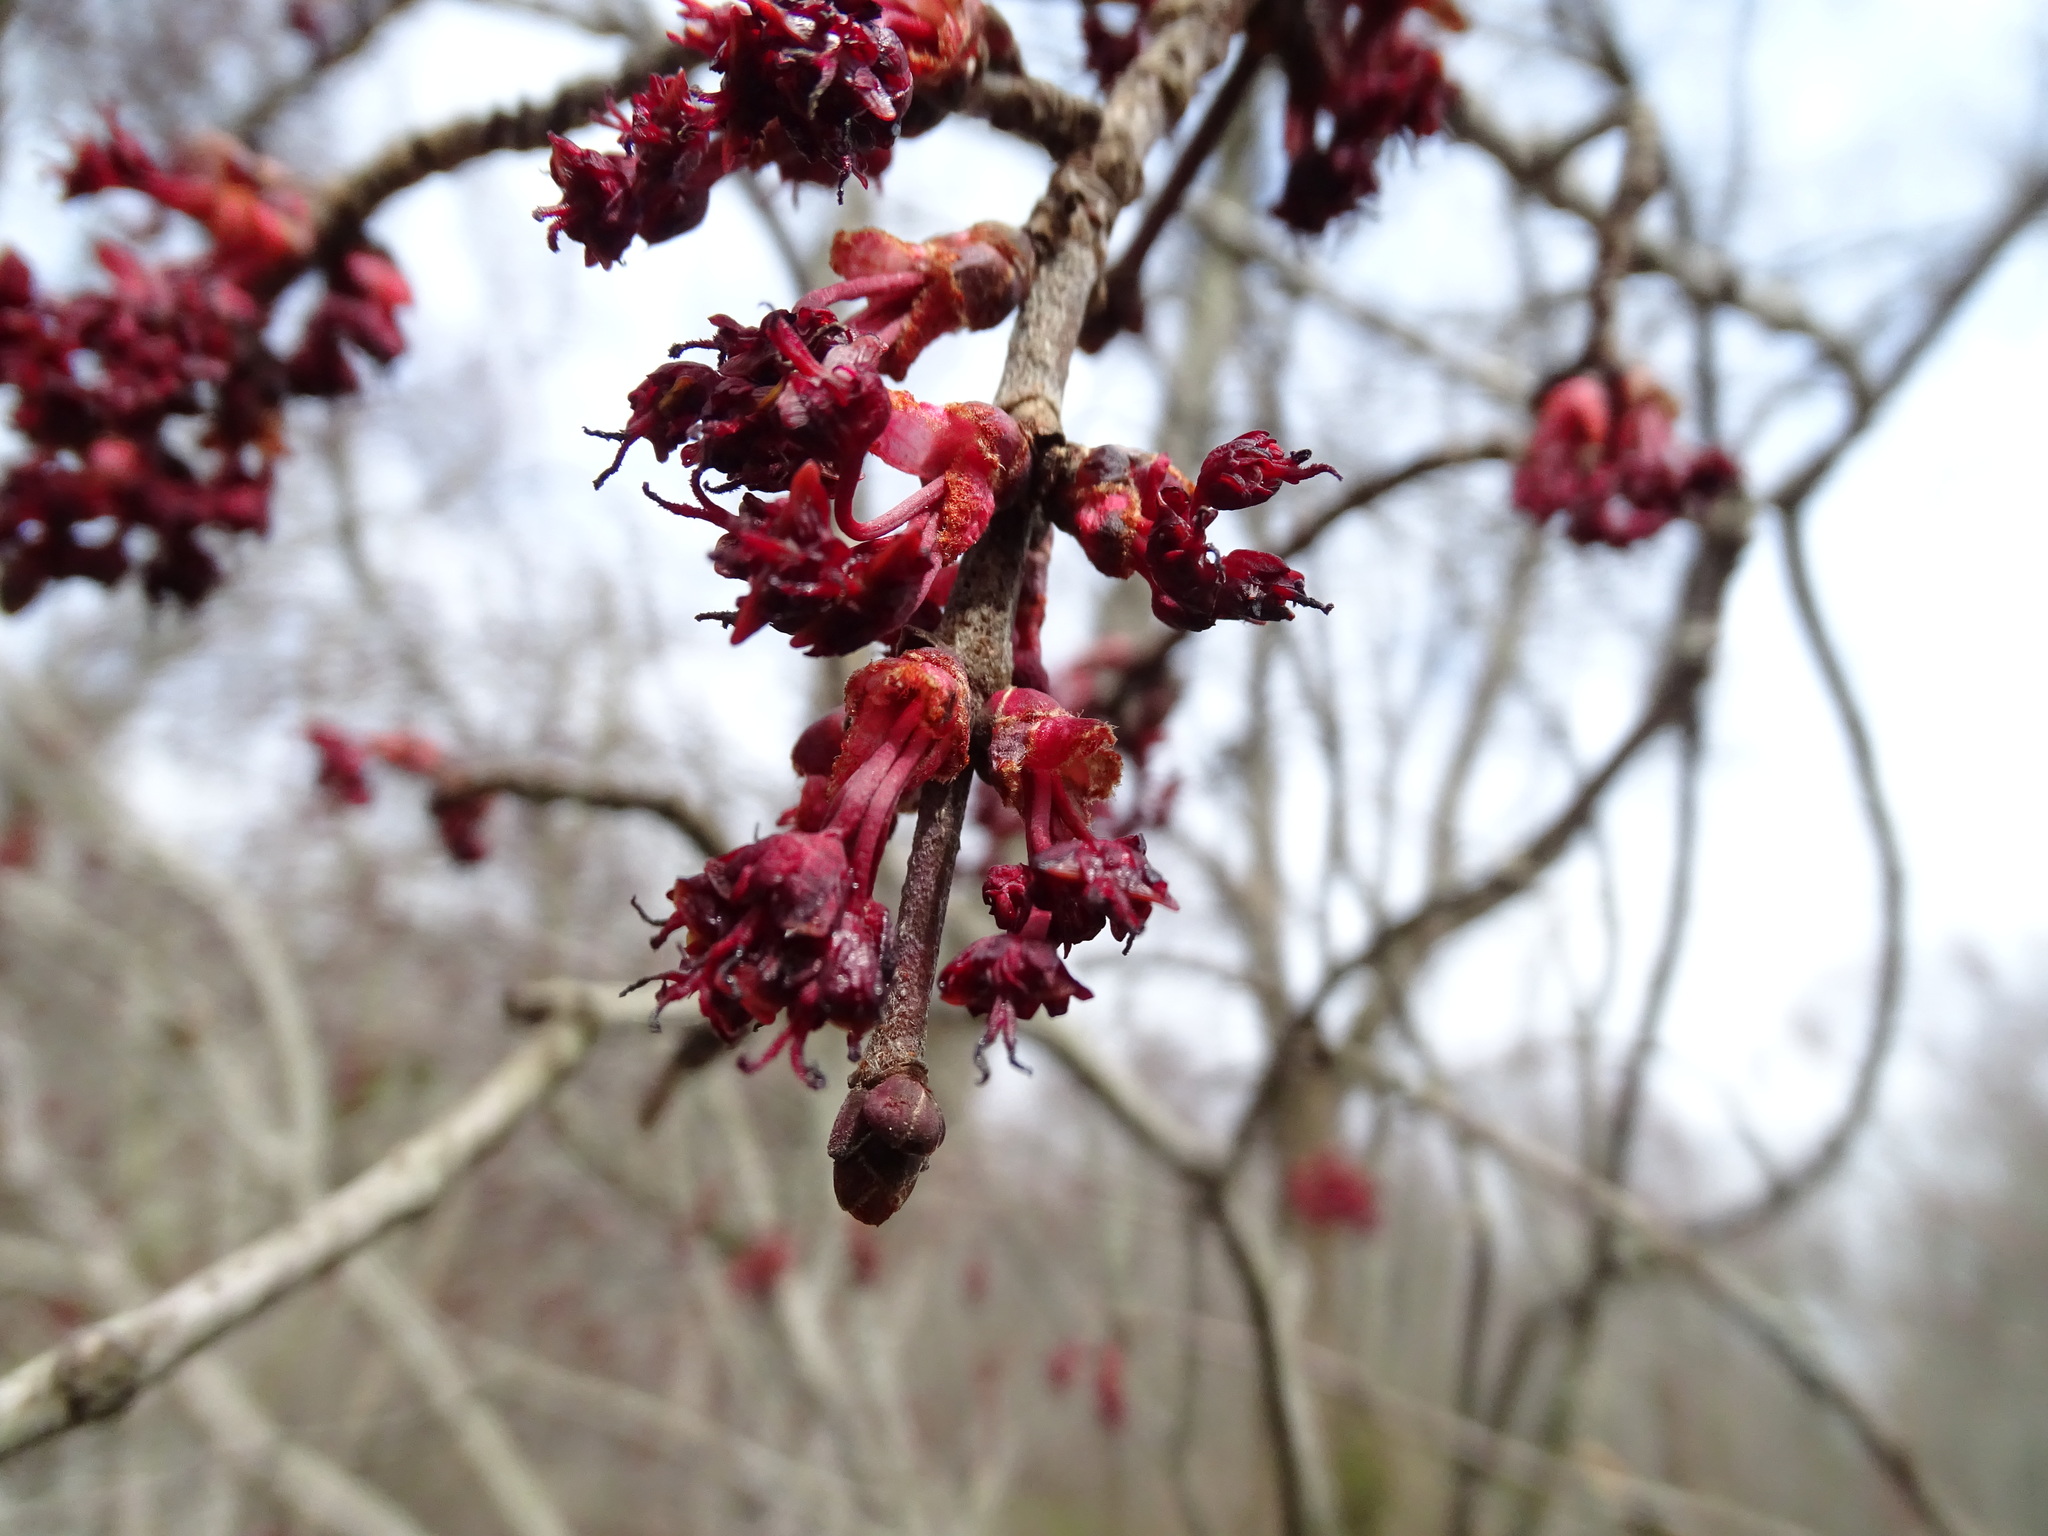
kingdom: Plantae
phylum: Tracheophyta
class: Magnoliopsida
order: Sapindales
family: Sapindaceae
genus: Acer
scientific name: Acer rubrum
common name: Red maple
